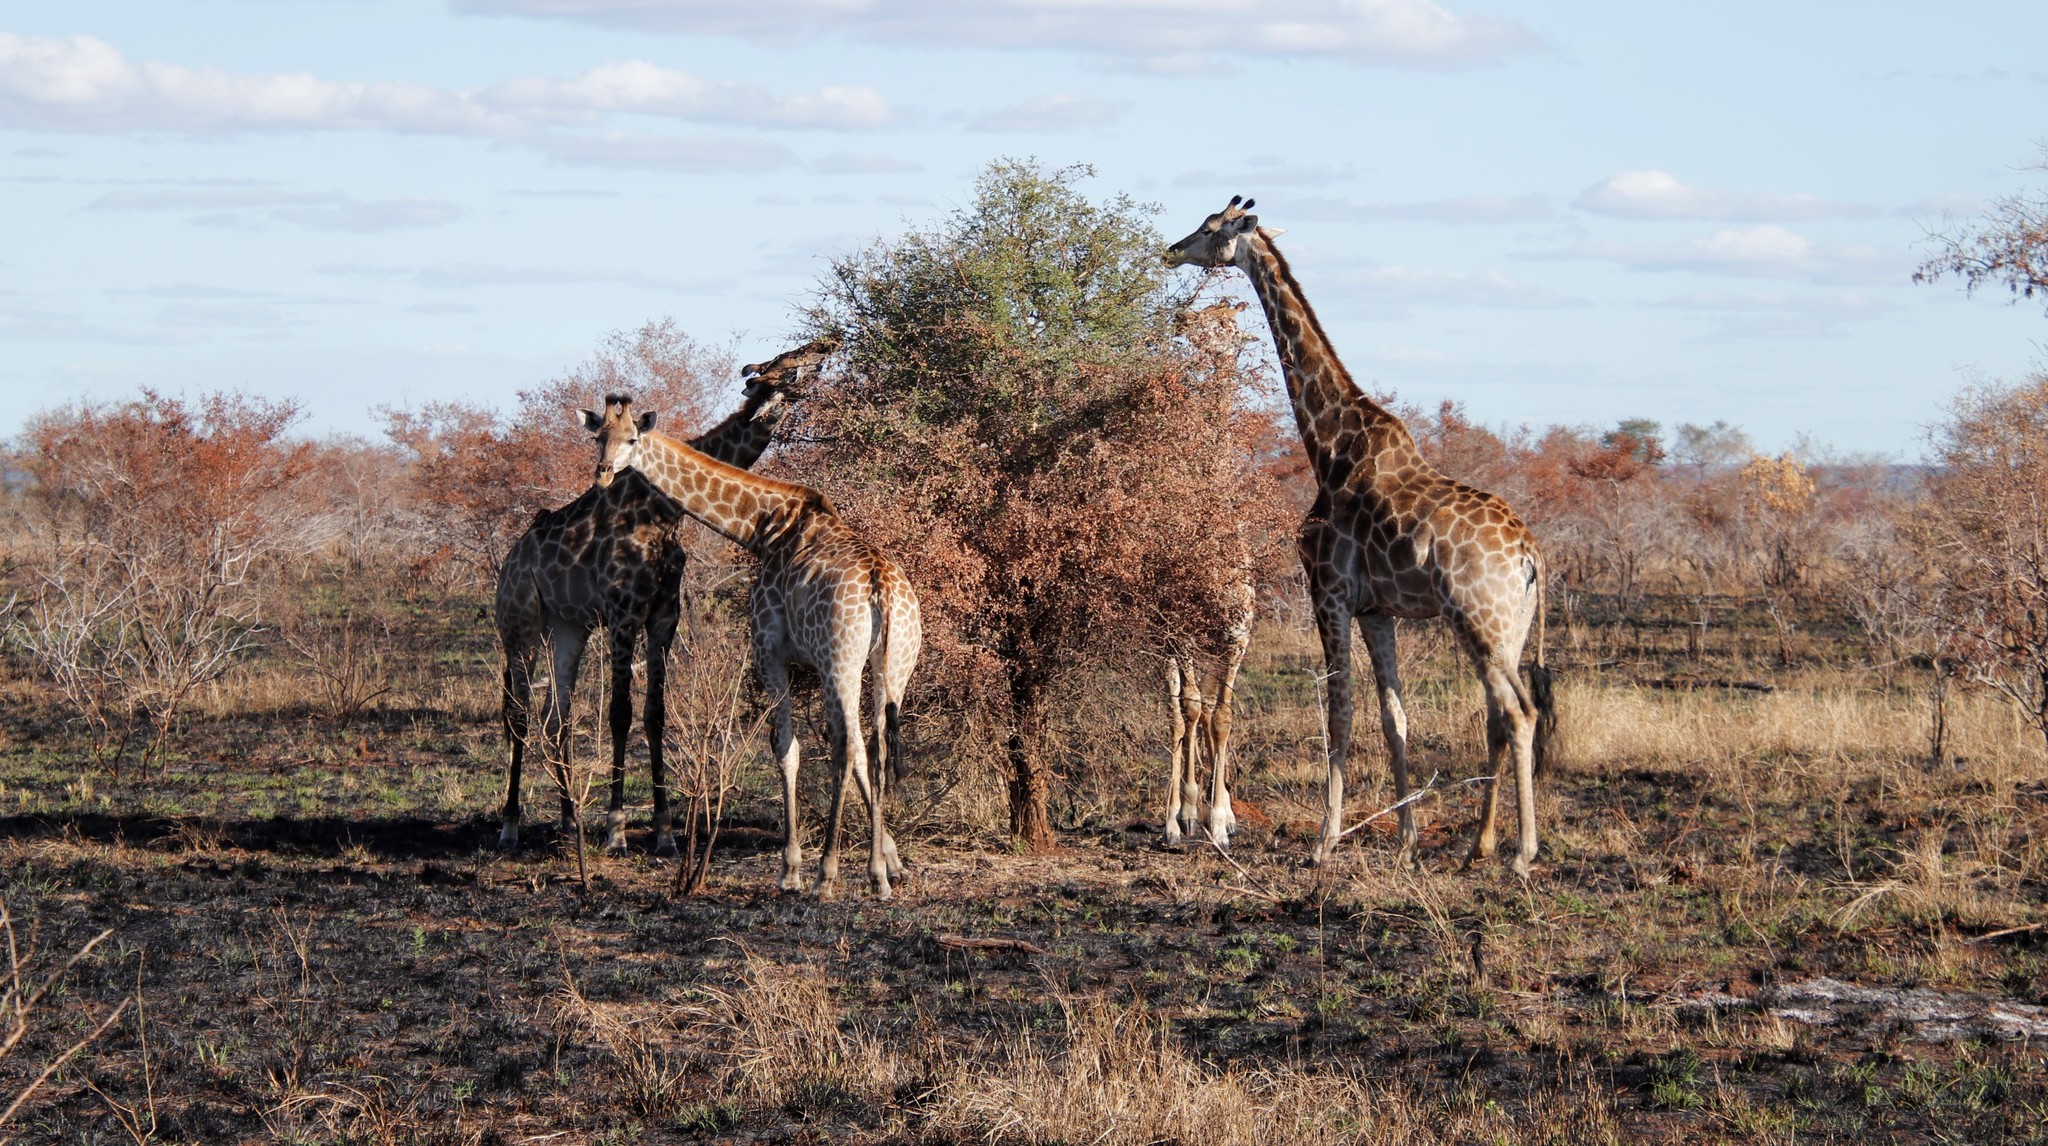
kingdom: Animalia
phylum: Chordata
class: Mammalia
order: Artiodactyla
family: Giraffidae
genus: Giraffa
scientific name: Giraffa giraffa
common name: Southern giraffe
